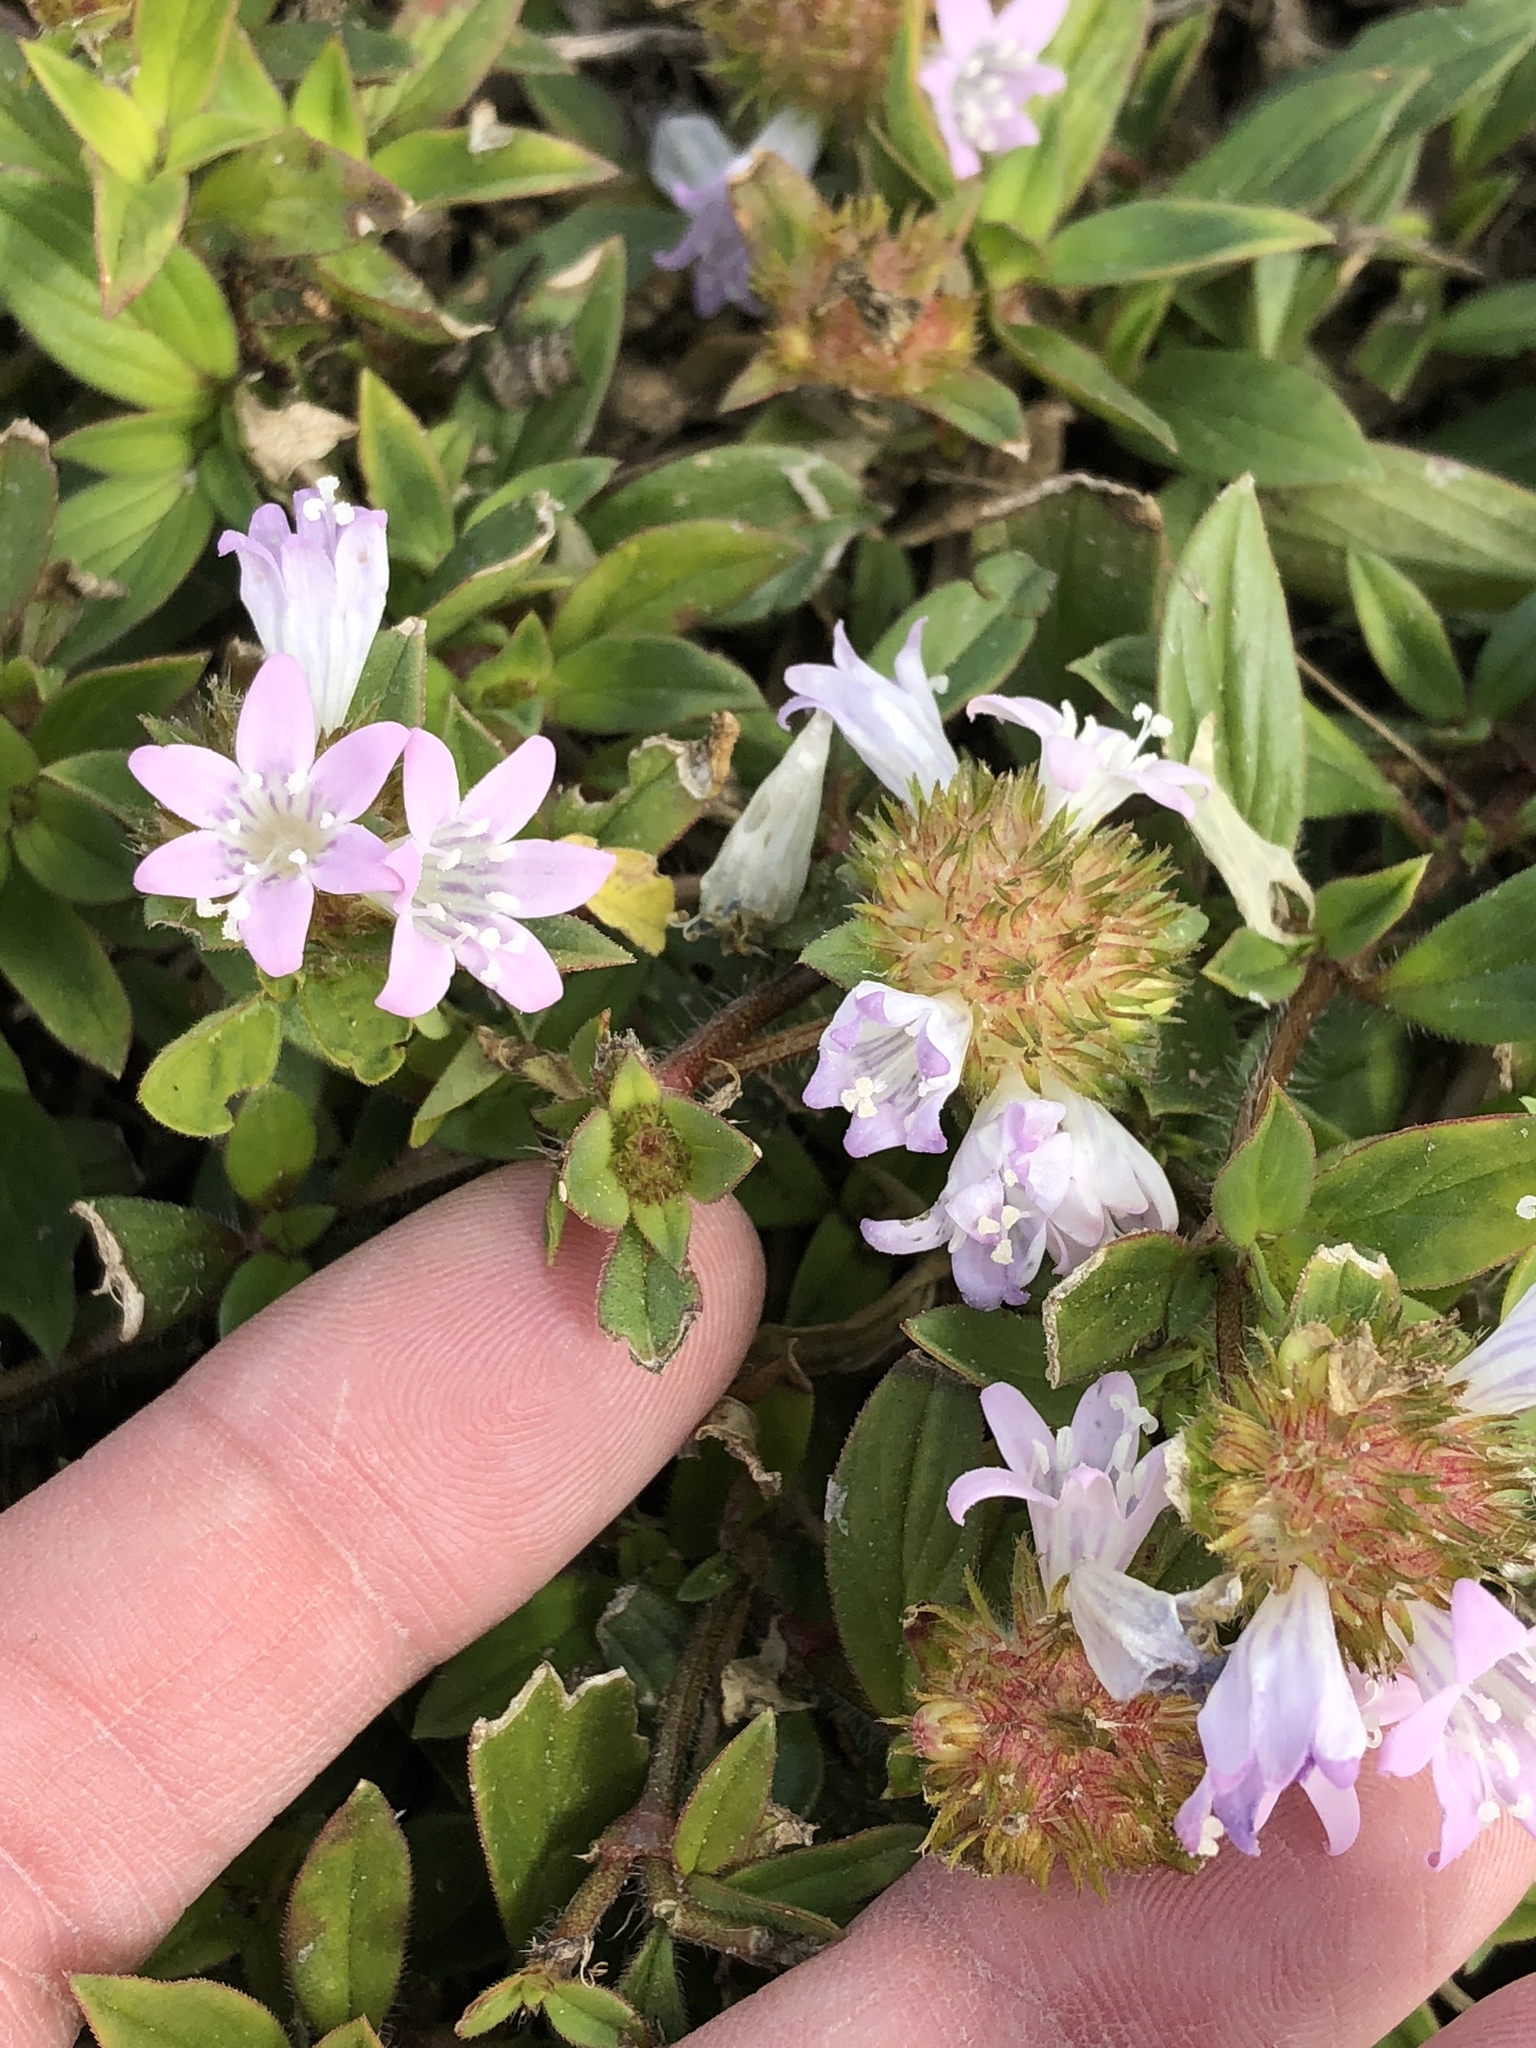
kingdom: Plantae
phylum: Tracheophyta
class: Magnoliopsida
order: Gentianales
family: Rubiaceae
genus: Richardia
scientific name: Richardia grandiflora
